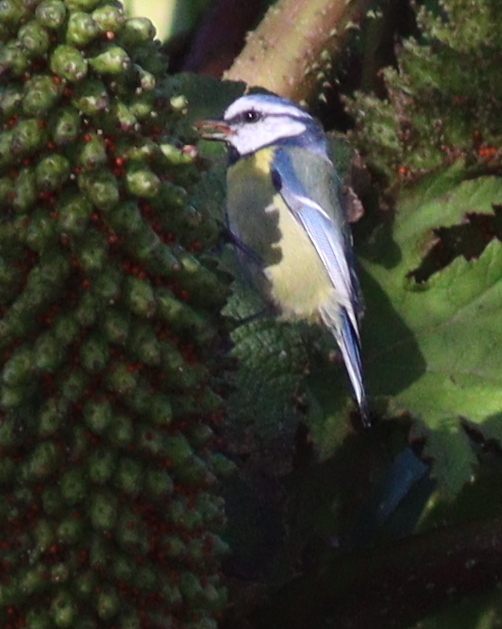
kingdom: Animalia
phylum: Chordata
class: Aves
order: Passeriformes
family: Paridae
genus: Cyanistes
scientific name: Cyanistes caeruleus
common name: Eurasian blue tit
